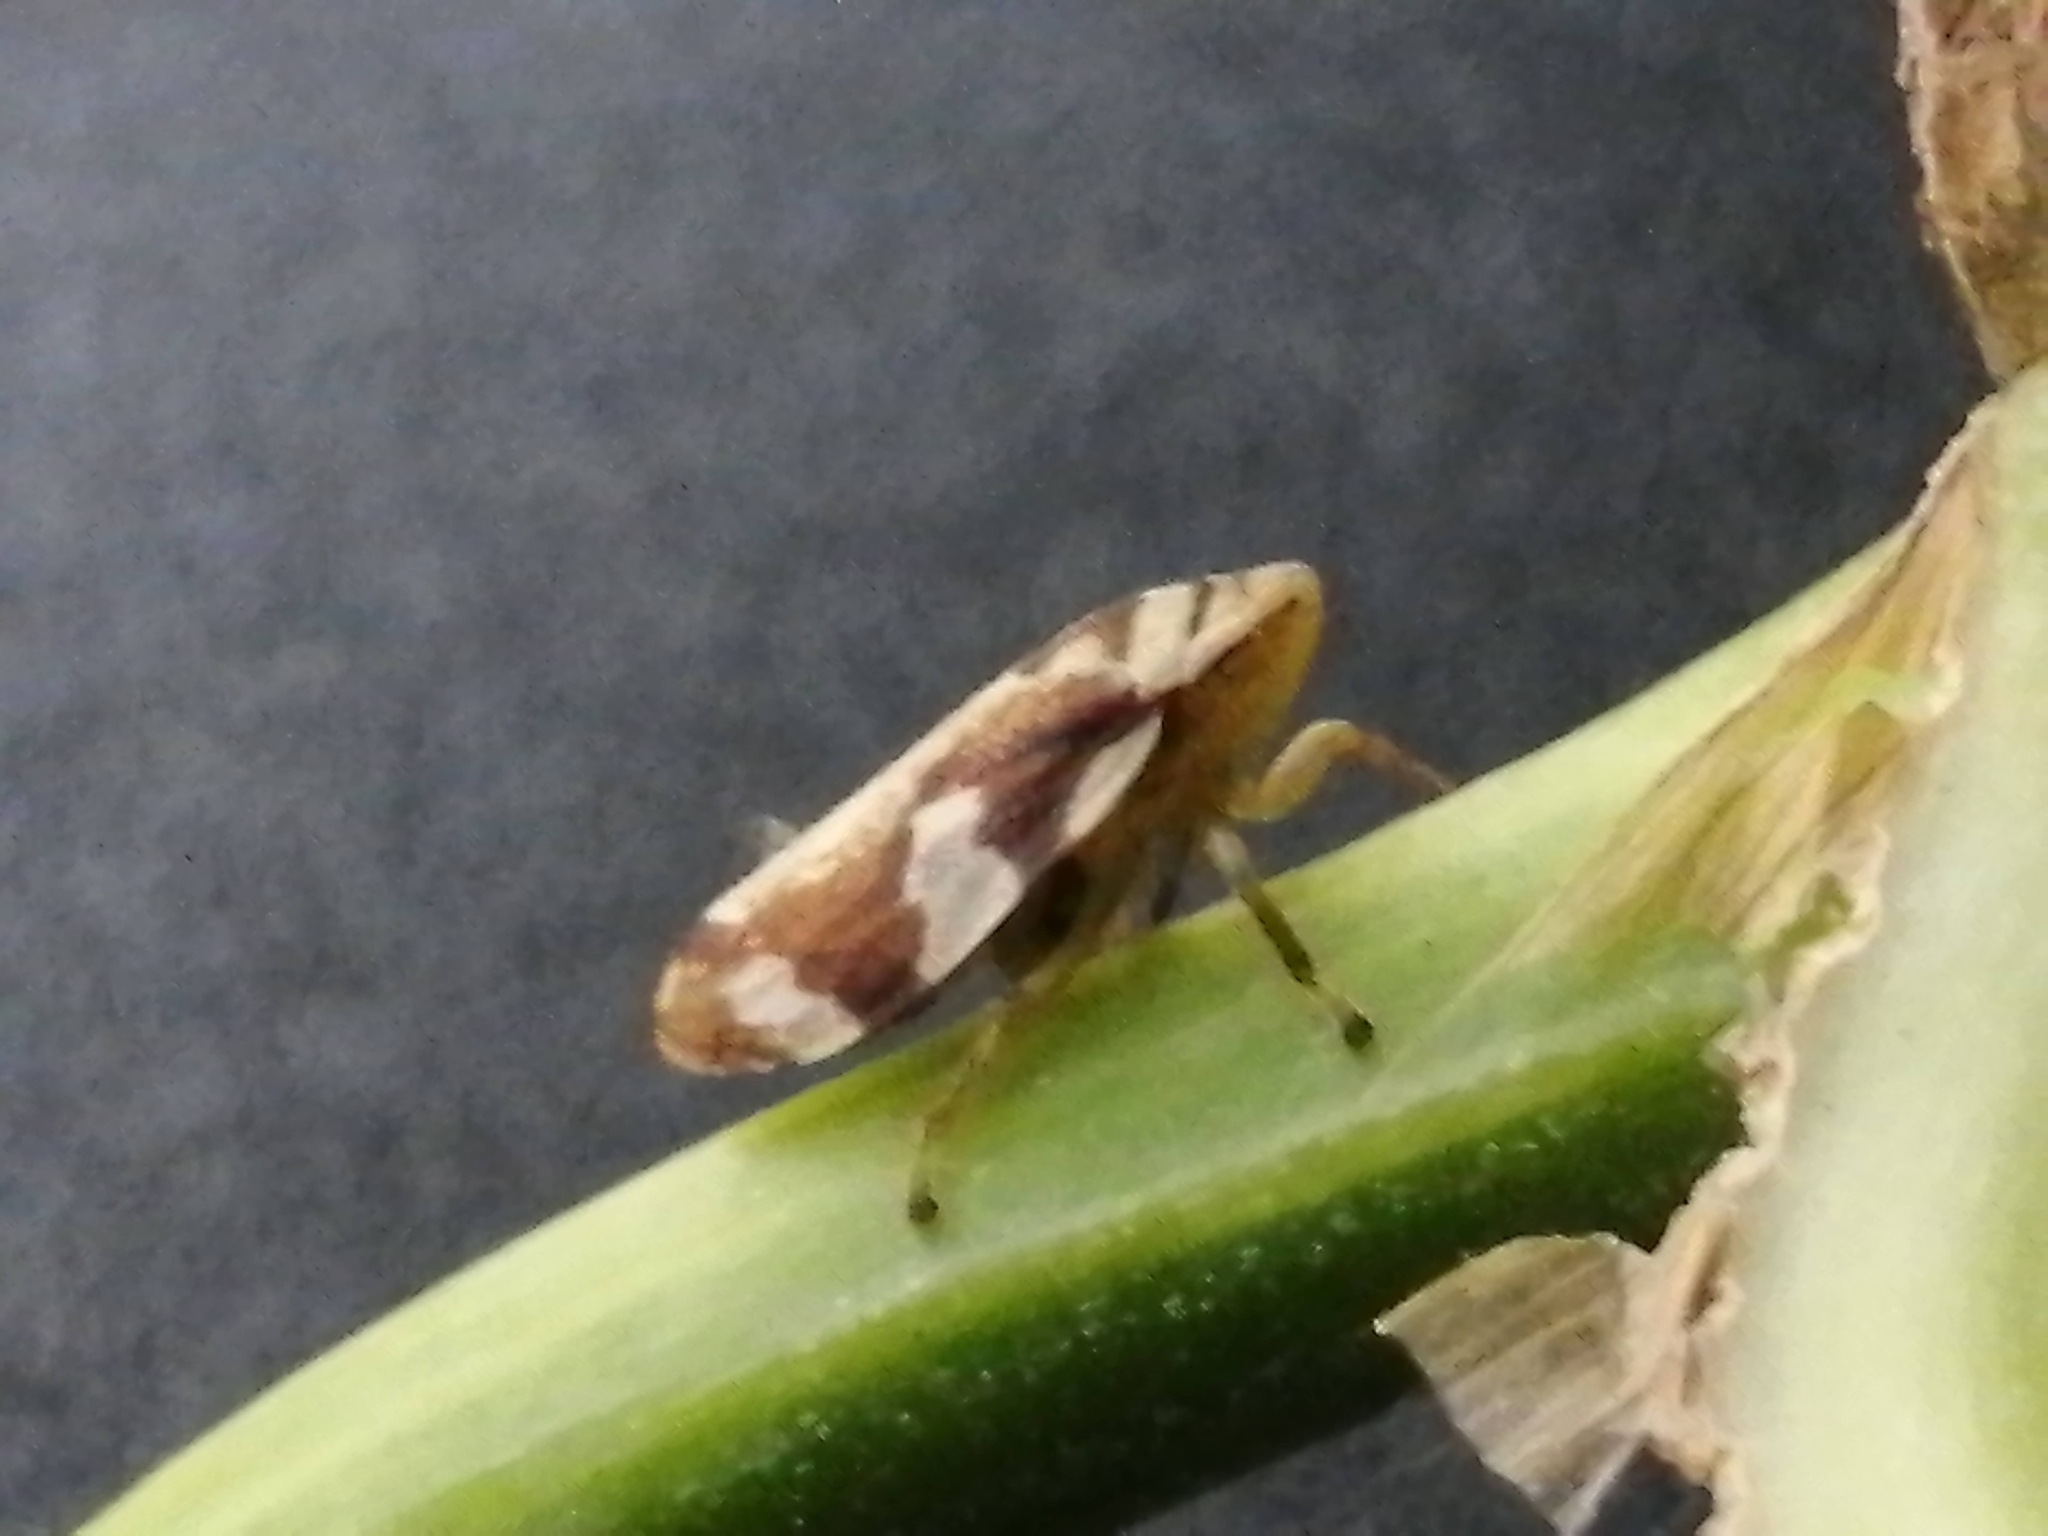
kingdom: Animalia
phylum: Arthropoda
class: Insecta
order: Hemiptera
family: Aphrophoridae
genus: Philaenus
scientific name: Philaenus spumarius
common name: Meadow spittlebug
